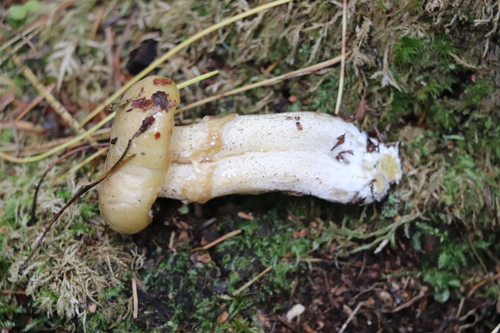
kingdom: Fungi
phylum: Basidiomycota
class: Agaricomycetes
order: Boletales
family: Suillaceae
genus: Suillus
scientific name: Suillus acidus
